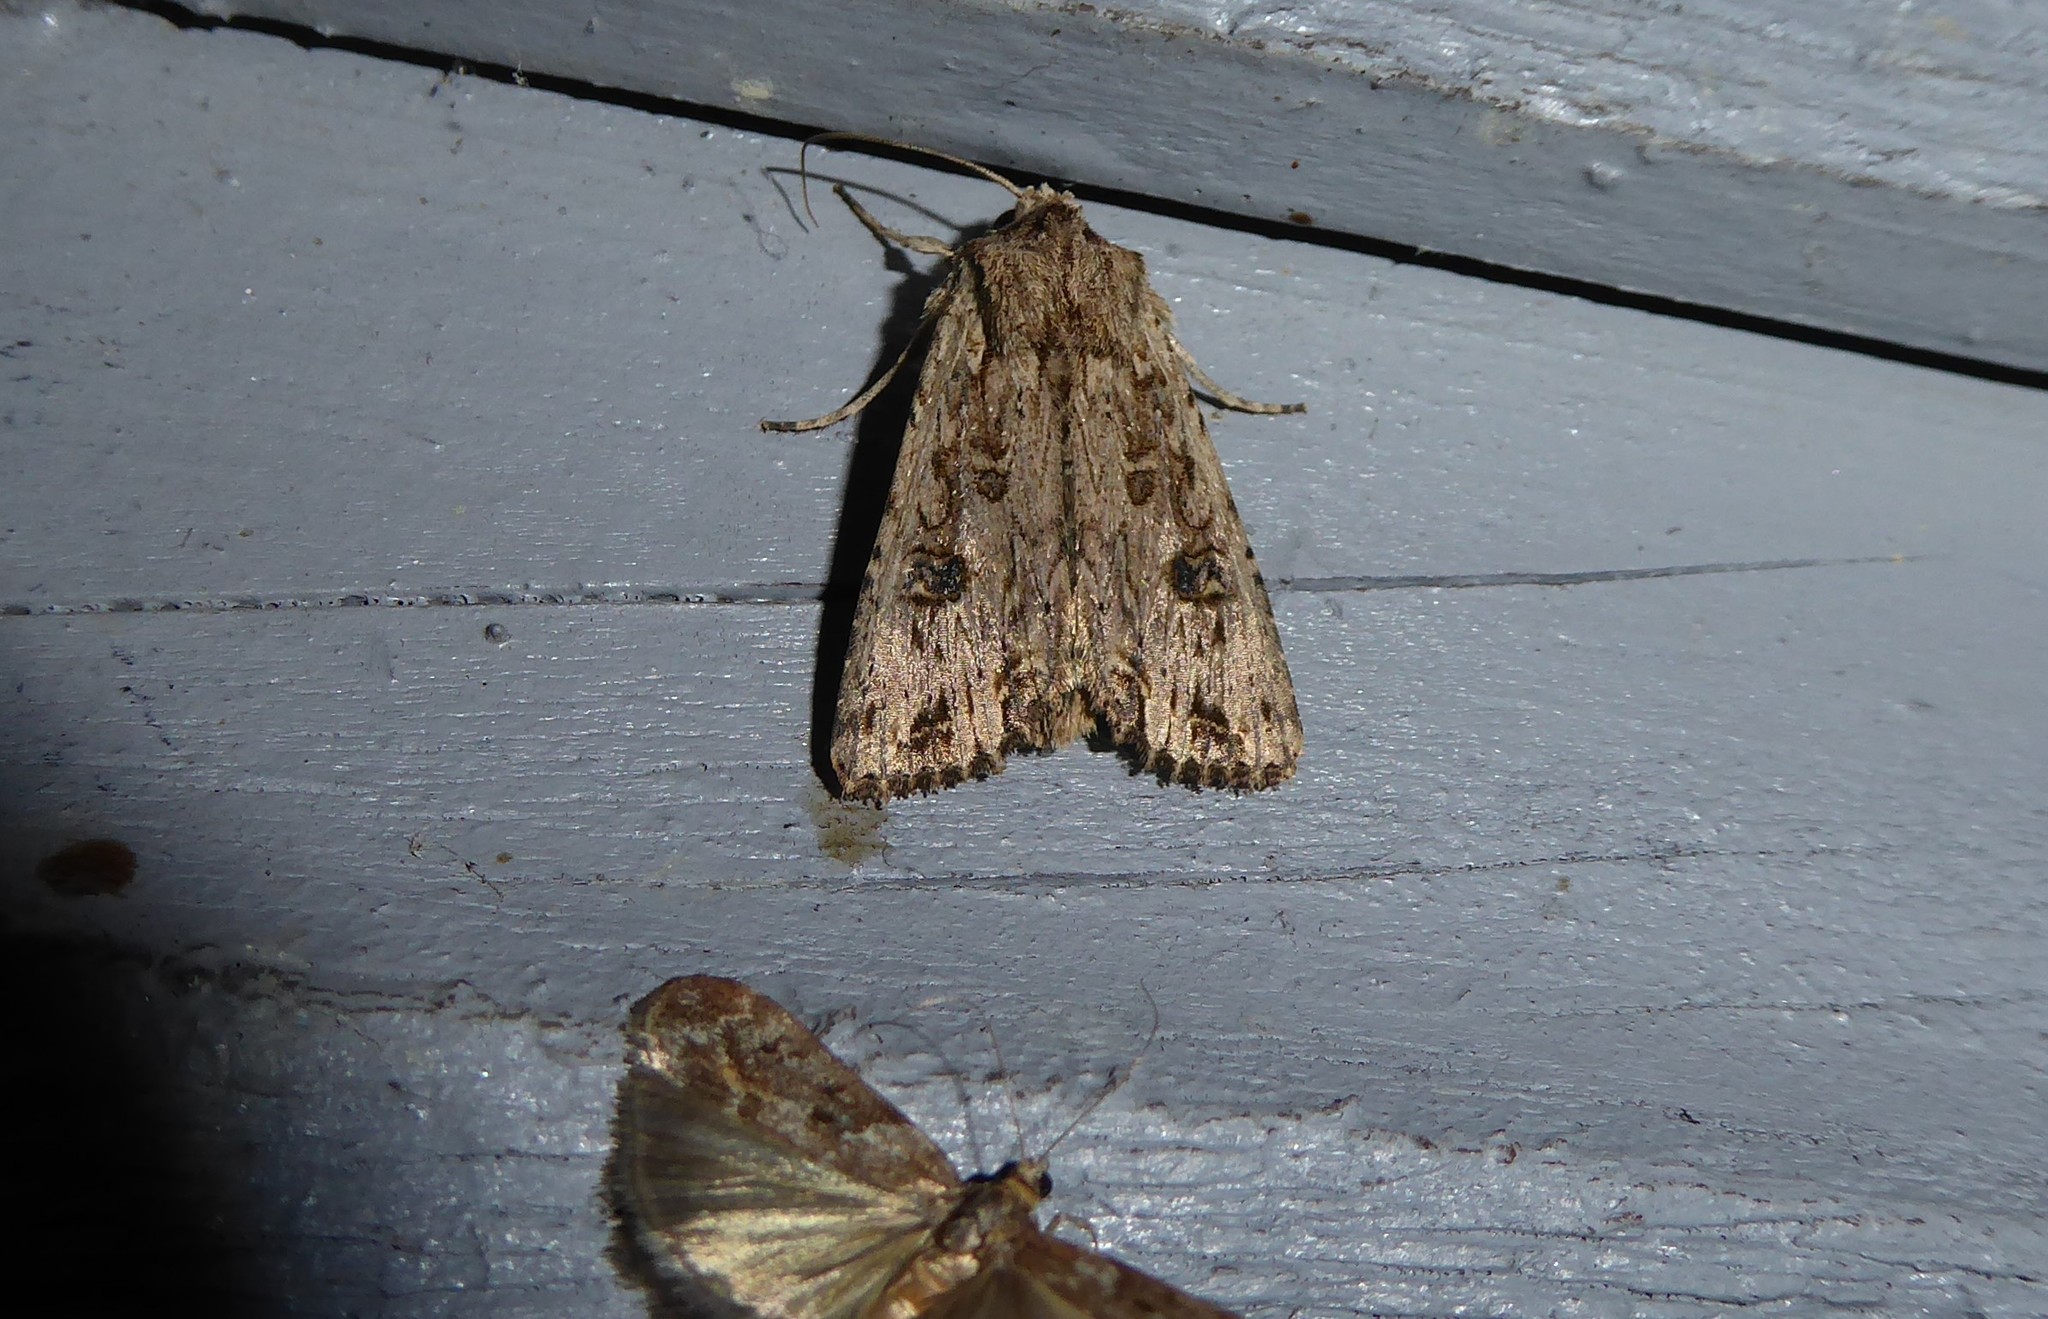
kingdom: Animalia
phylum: Arthropoda
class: Insecta
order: Lepidoptera
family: Noctuidae
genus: Ichneutica
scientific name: Ichneutica lignana
